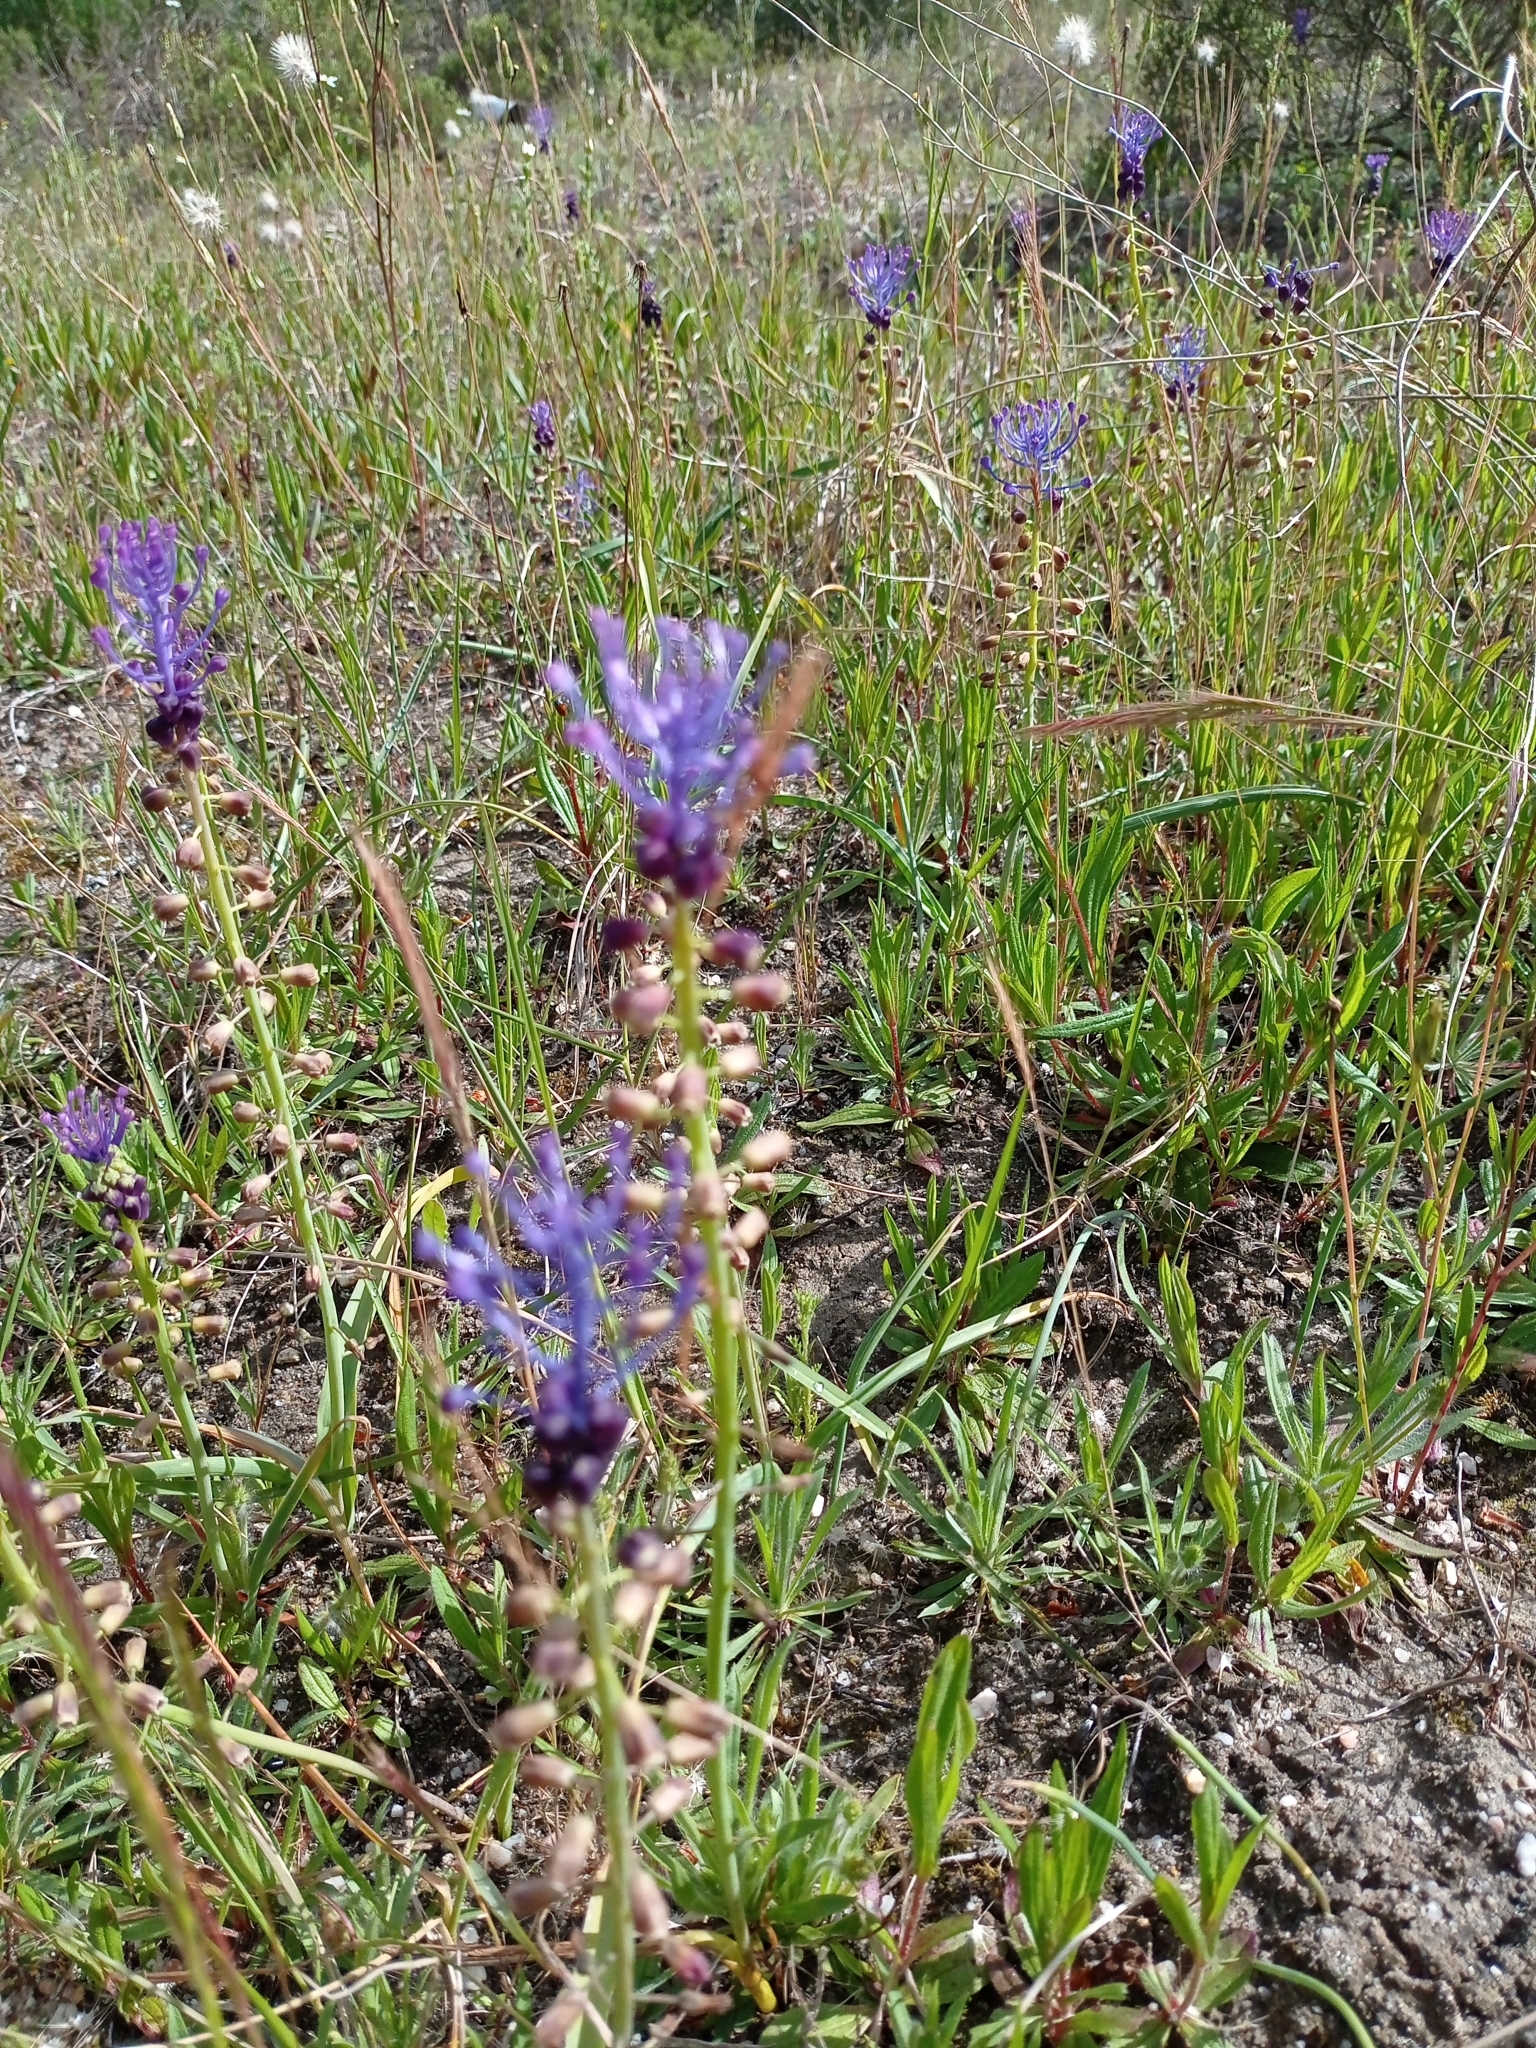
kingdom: Plantae
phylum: Tracheophyta
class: Liliopsida
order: Asparagales
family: Asparagaceae
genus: Muscari
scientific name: Muscari comosum
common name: Tassel hyacinth
